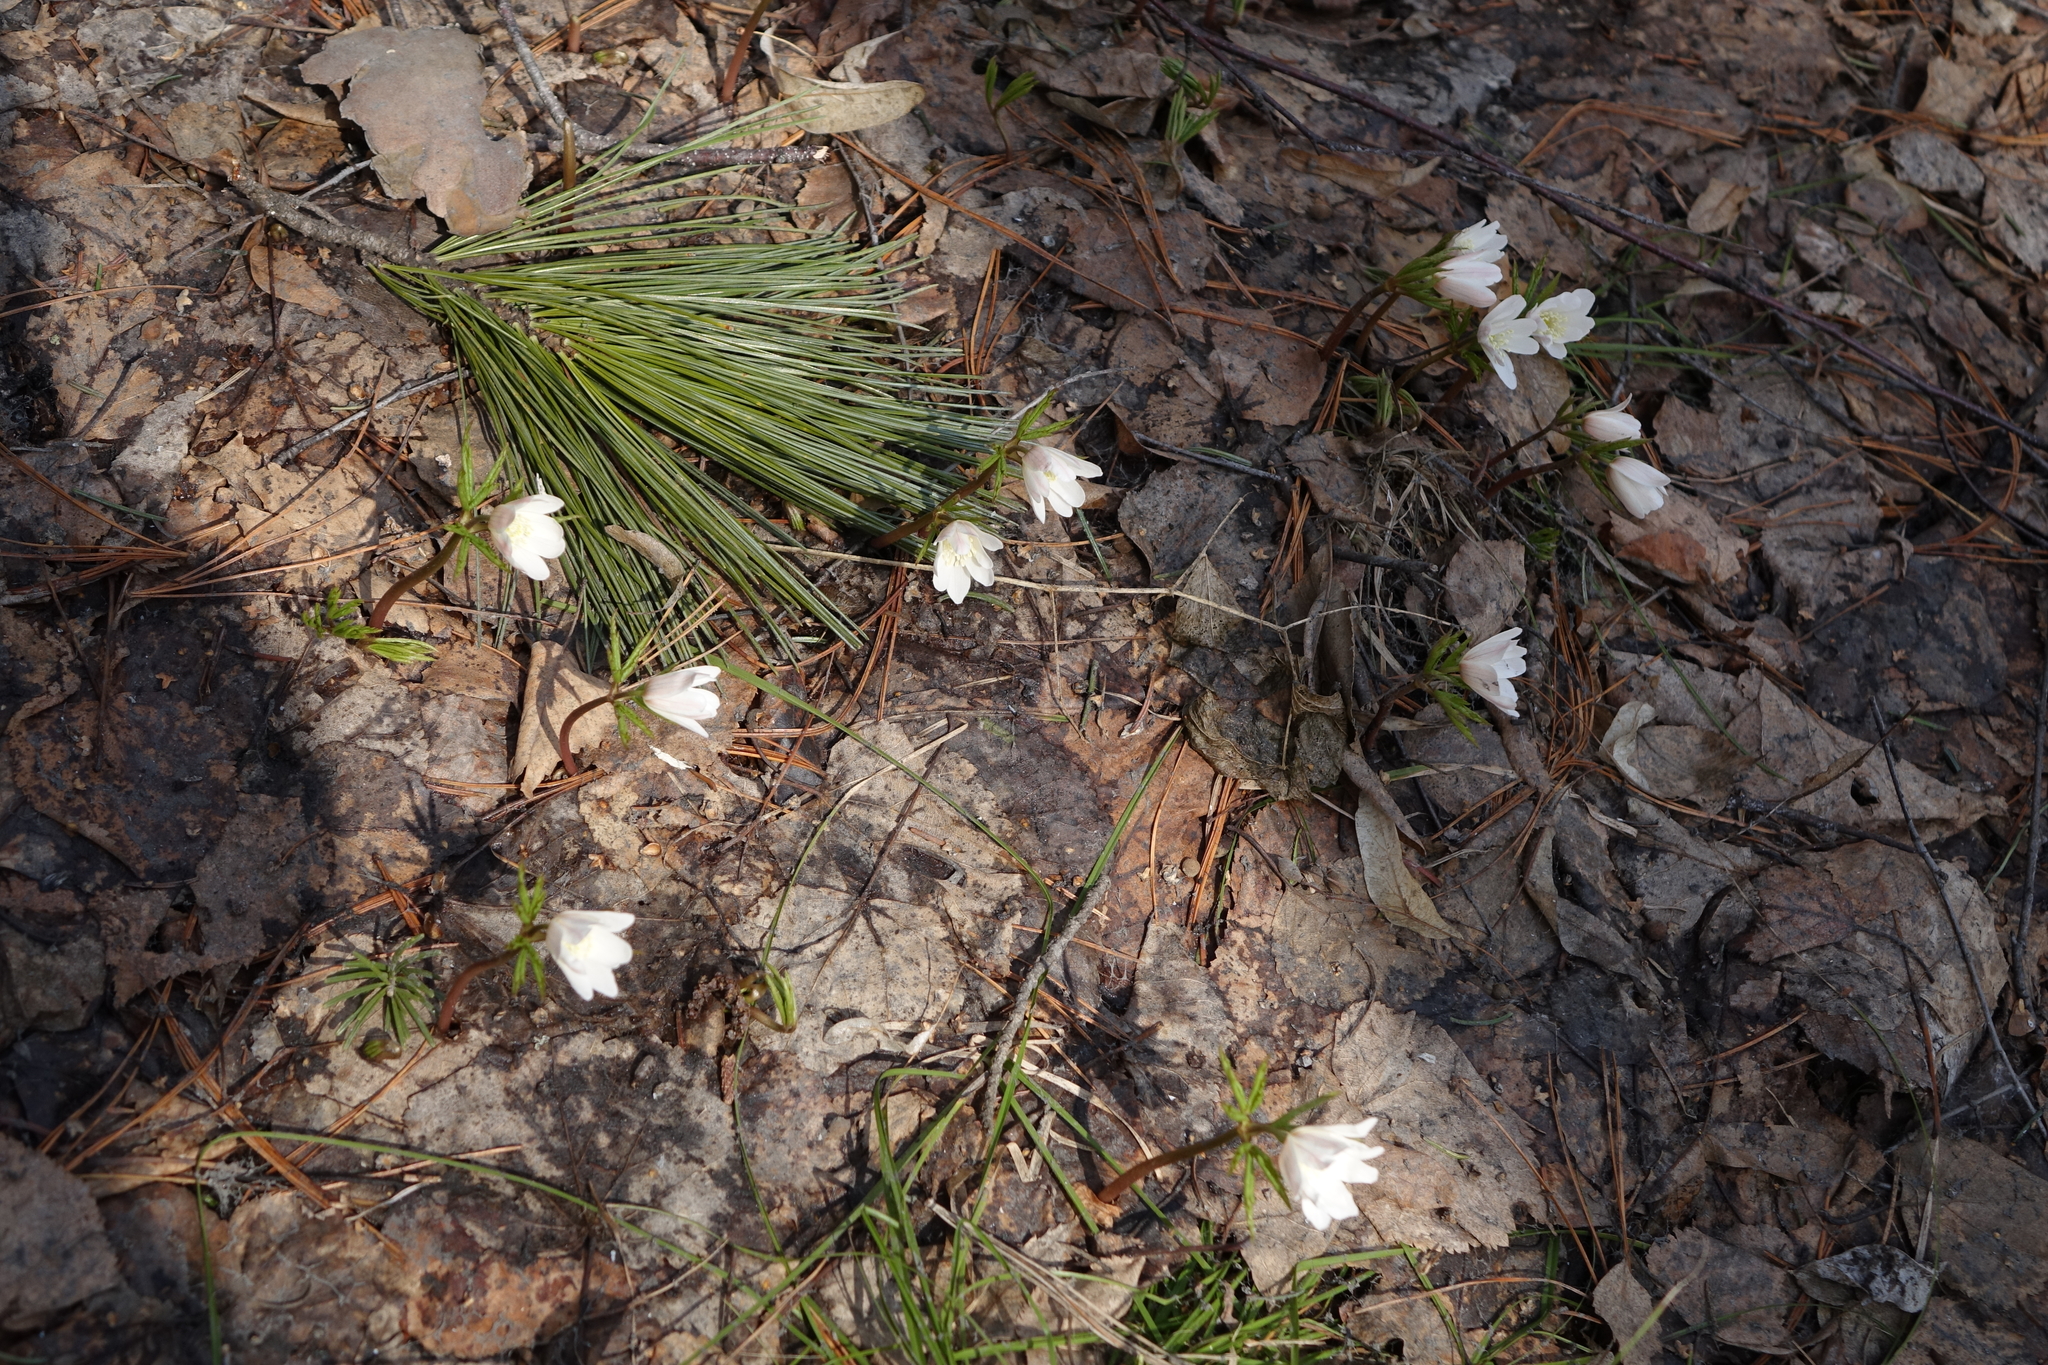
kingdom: Plantae
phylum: Tracheophyta
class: Magnoliopsida
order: Ranunculales
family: Ranunculaceae
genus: Anemone
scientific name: Anemone altaica
